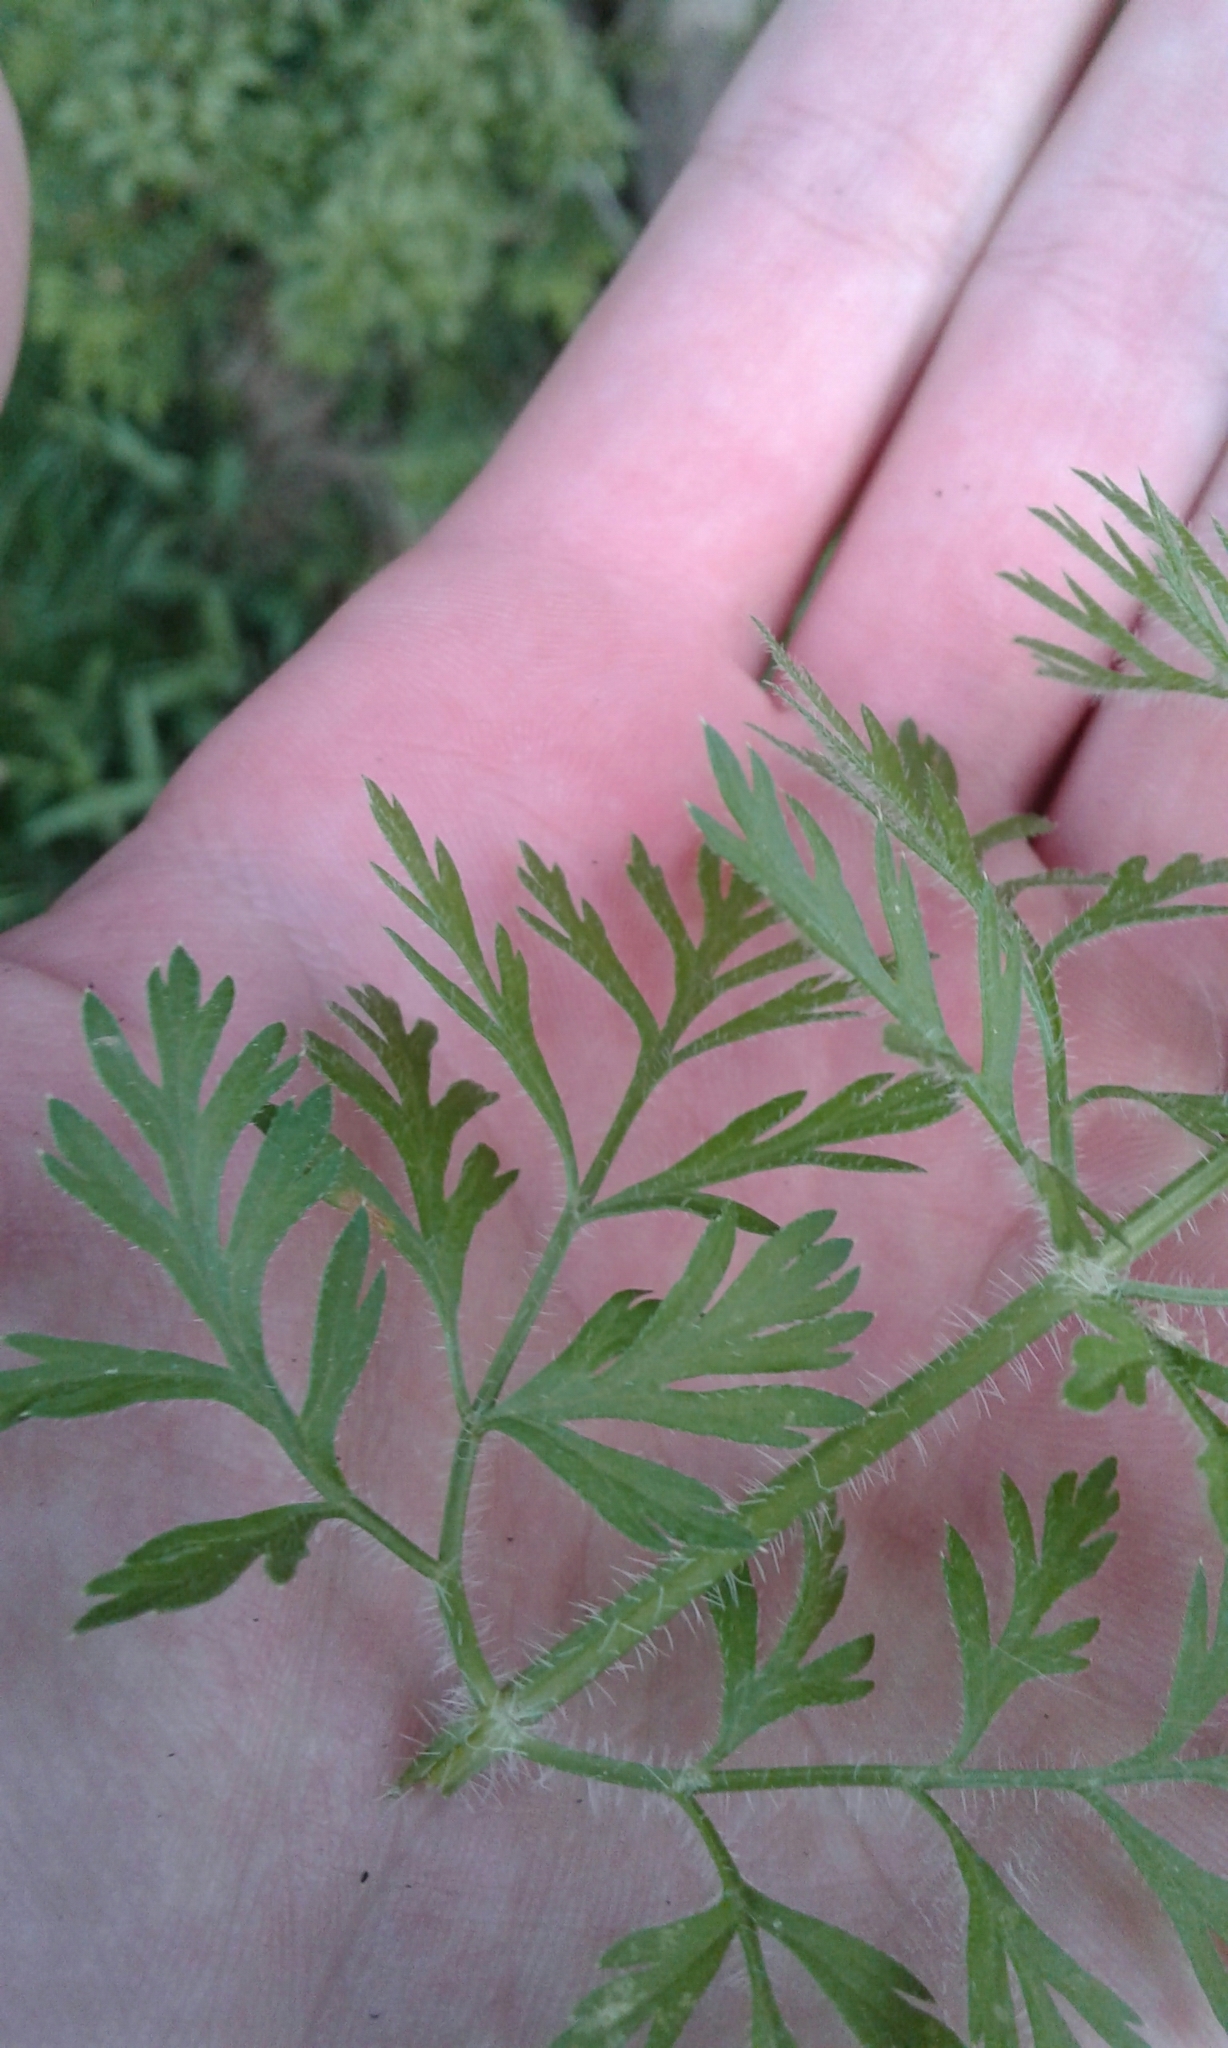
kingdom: Plantae
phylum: Tracheophyta
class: Magnoliopsida
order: Apiales
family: Apiaceae
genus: Daucus
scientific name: Daucus carota
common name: Wild carrot
